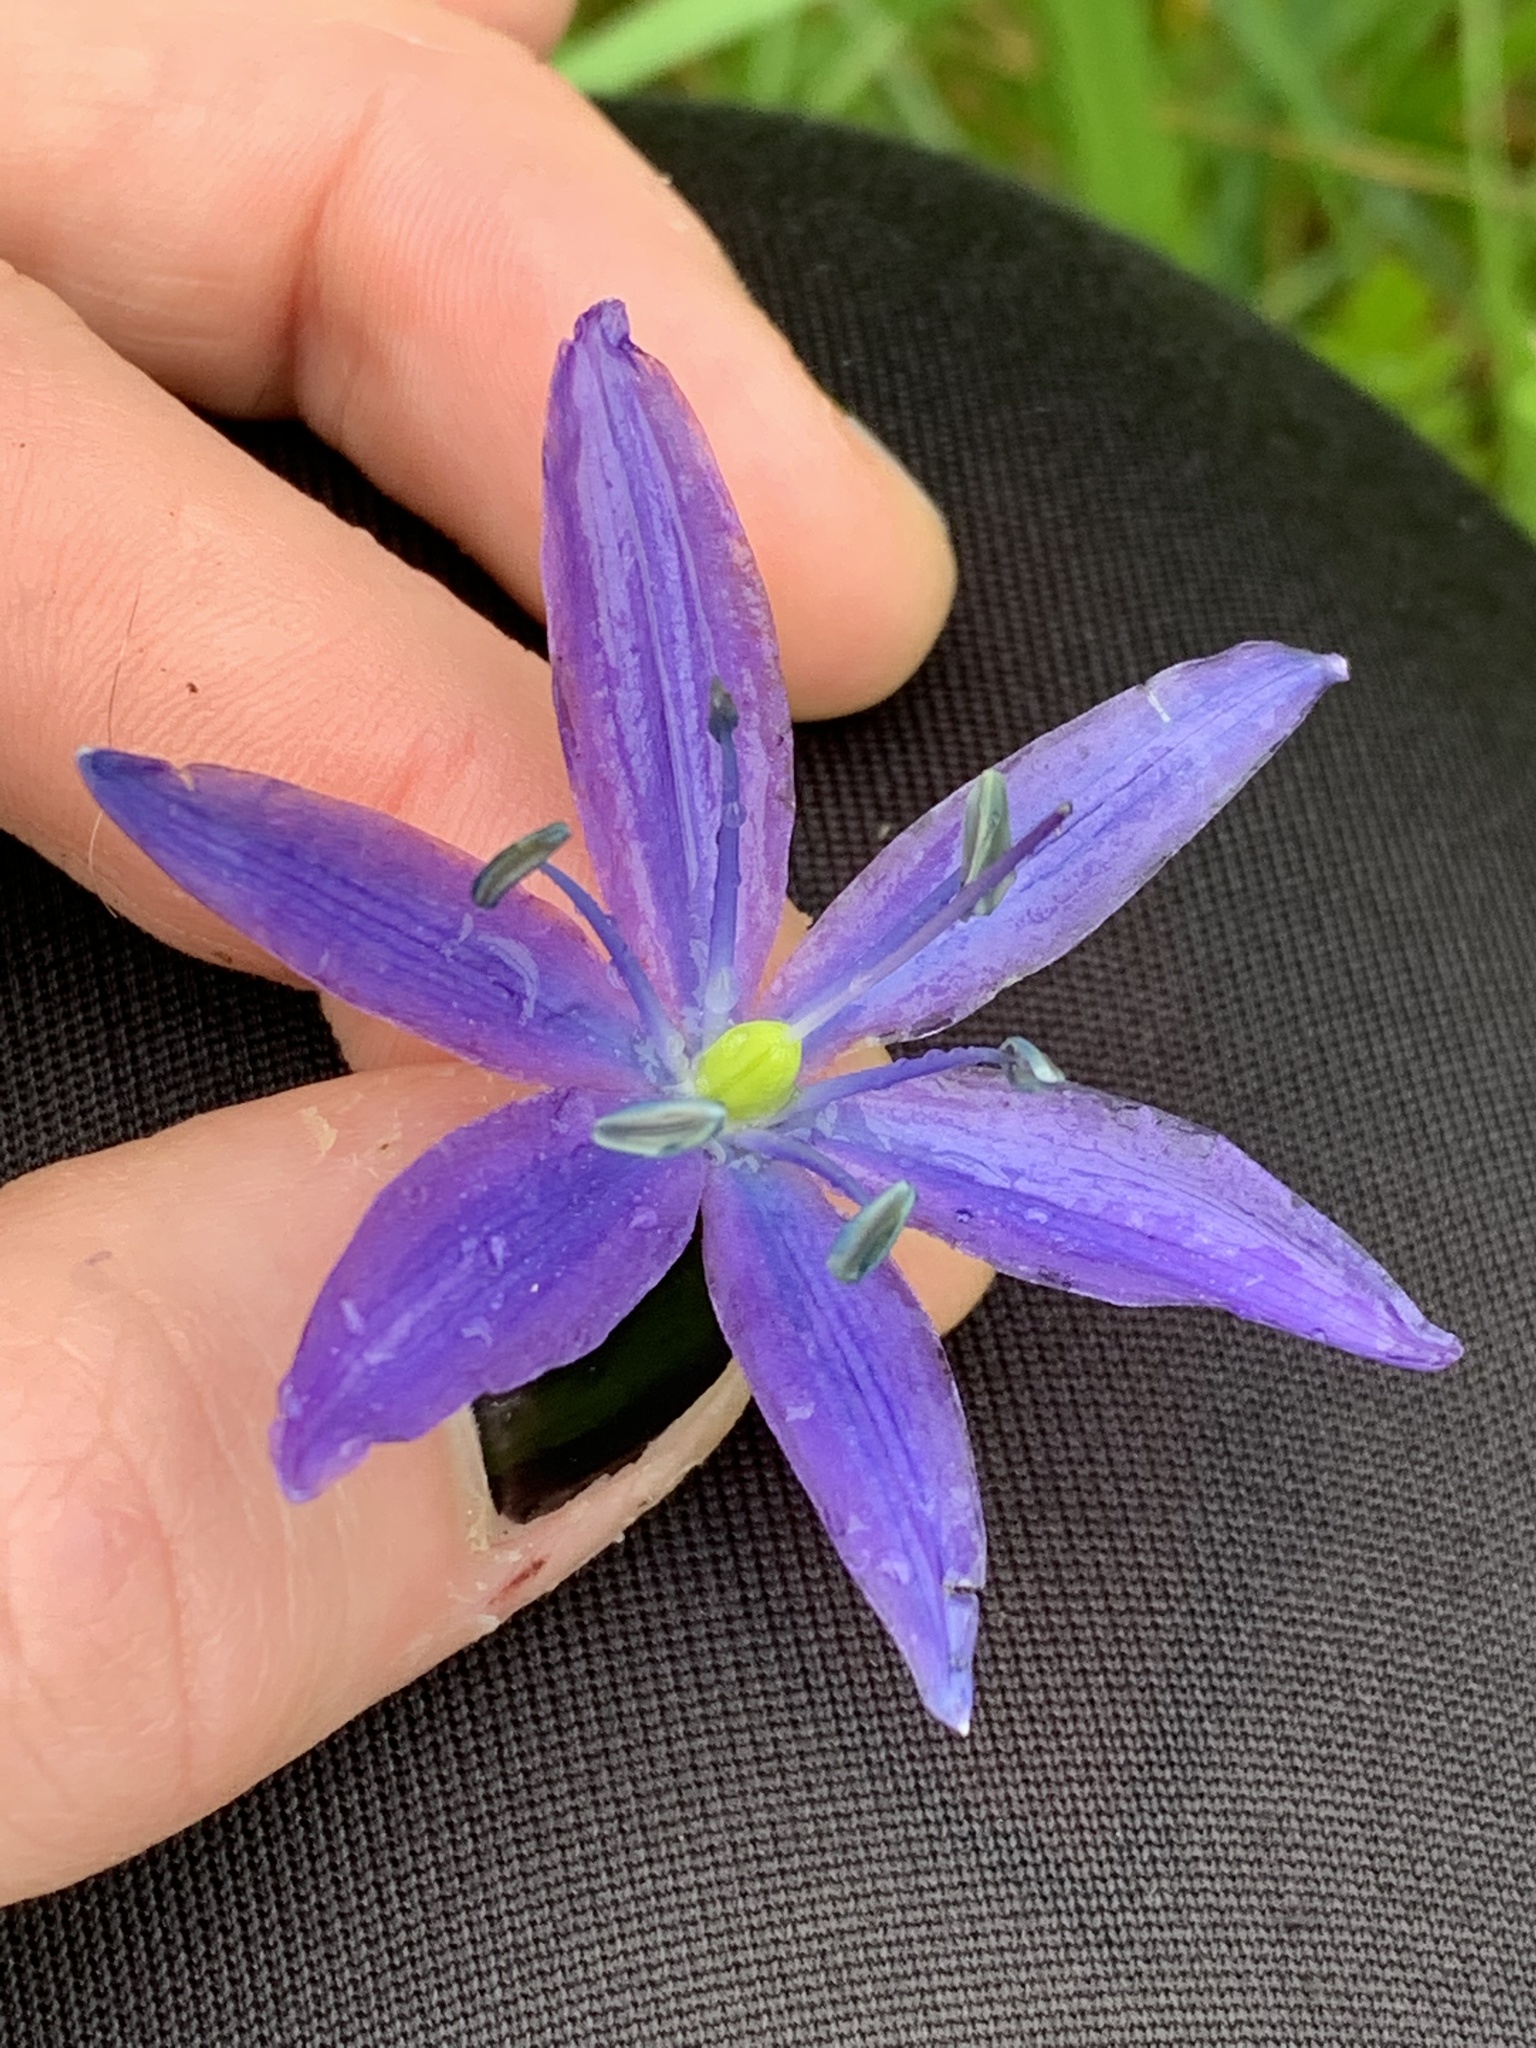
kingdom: Plantae
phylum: Tracheophyta
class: Liliopsida
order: Asparagales
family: Asparagaceae
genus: Camassia
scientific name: Camassia leichtlinii
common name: Leichtlin's camas
